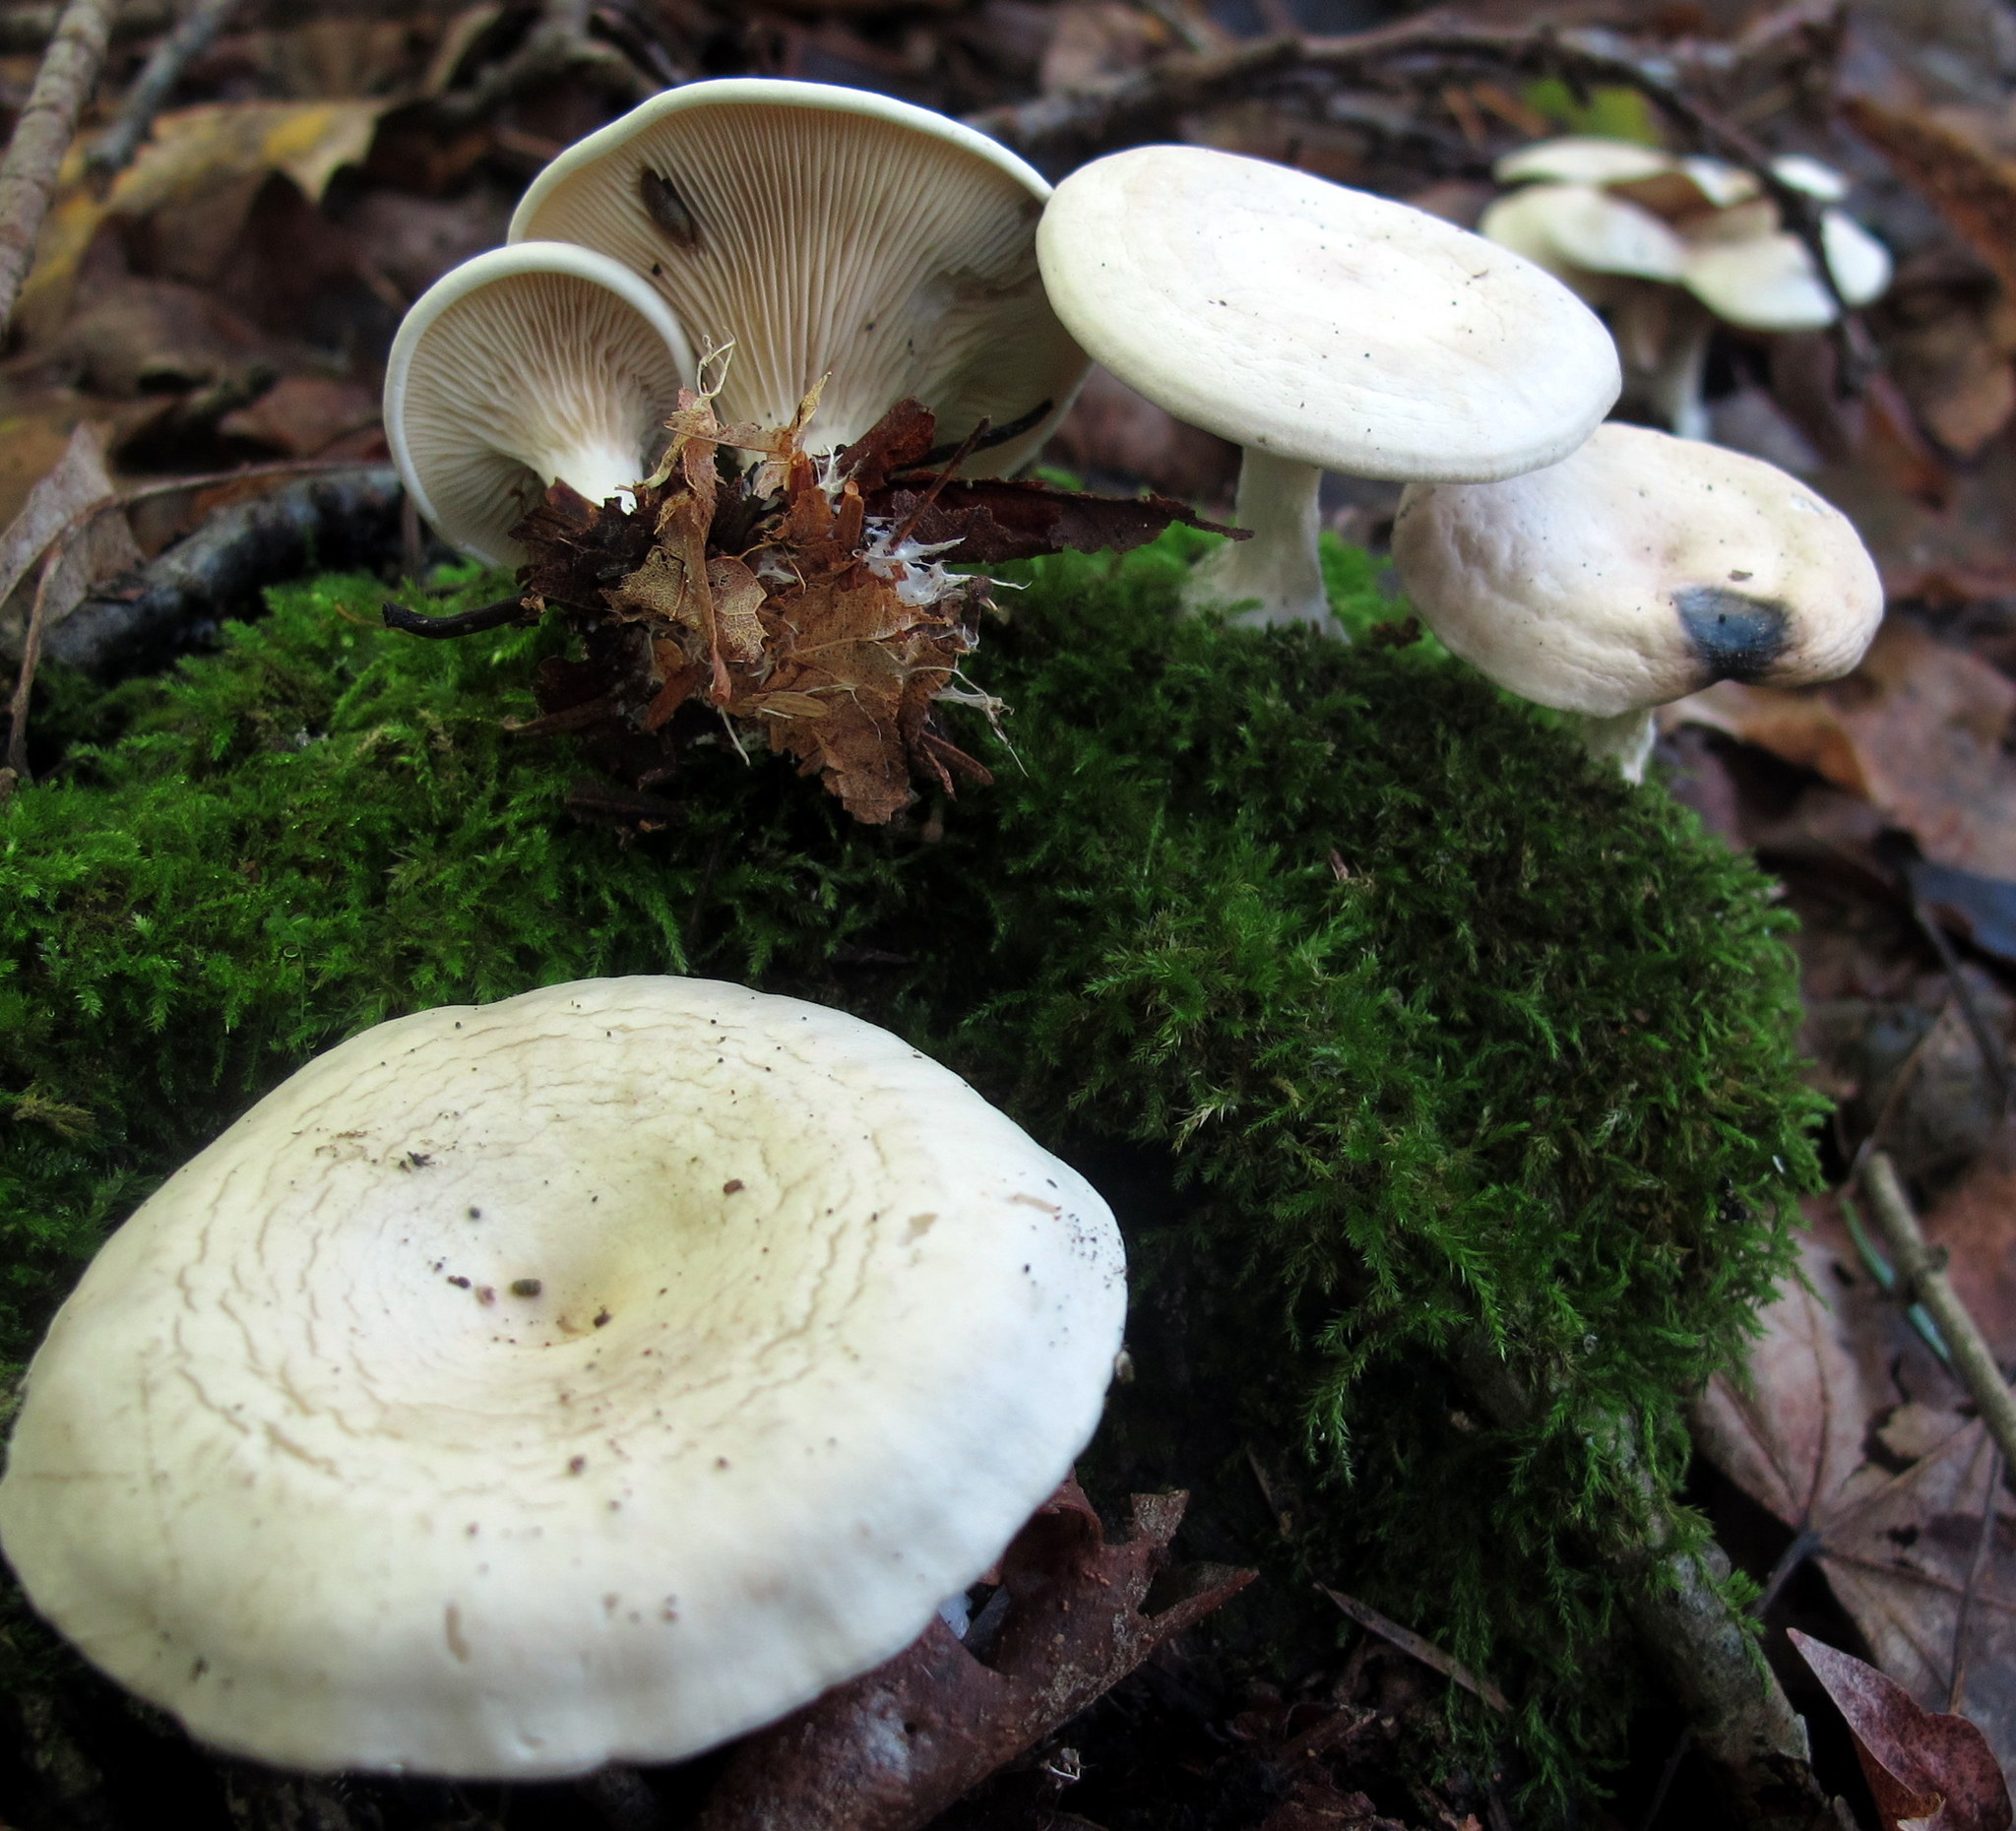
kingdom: Fungi
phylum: Basidiomycota
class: Agaricomycetes
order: Agaricales
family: Tricholomataceae
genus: Lulesia
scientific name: Lulesia
